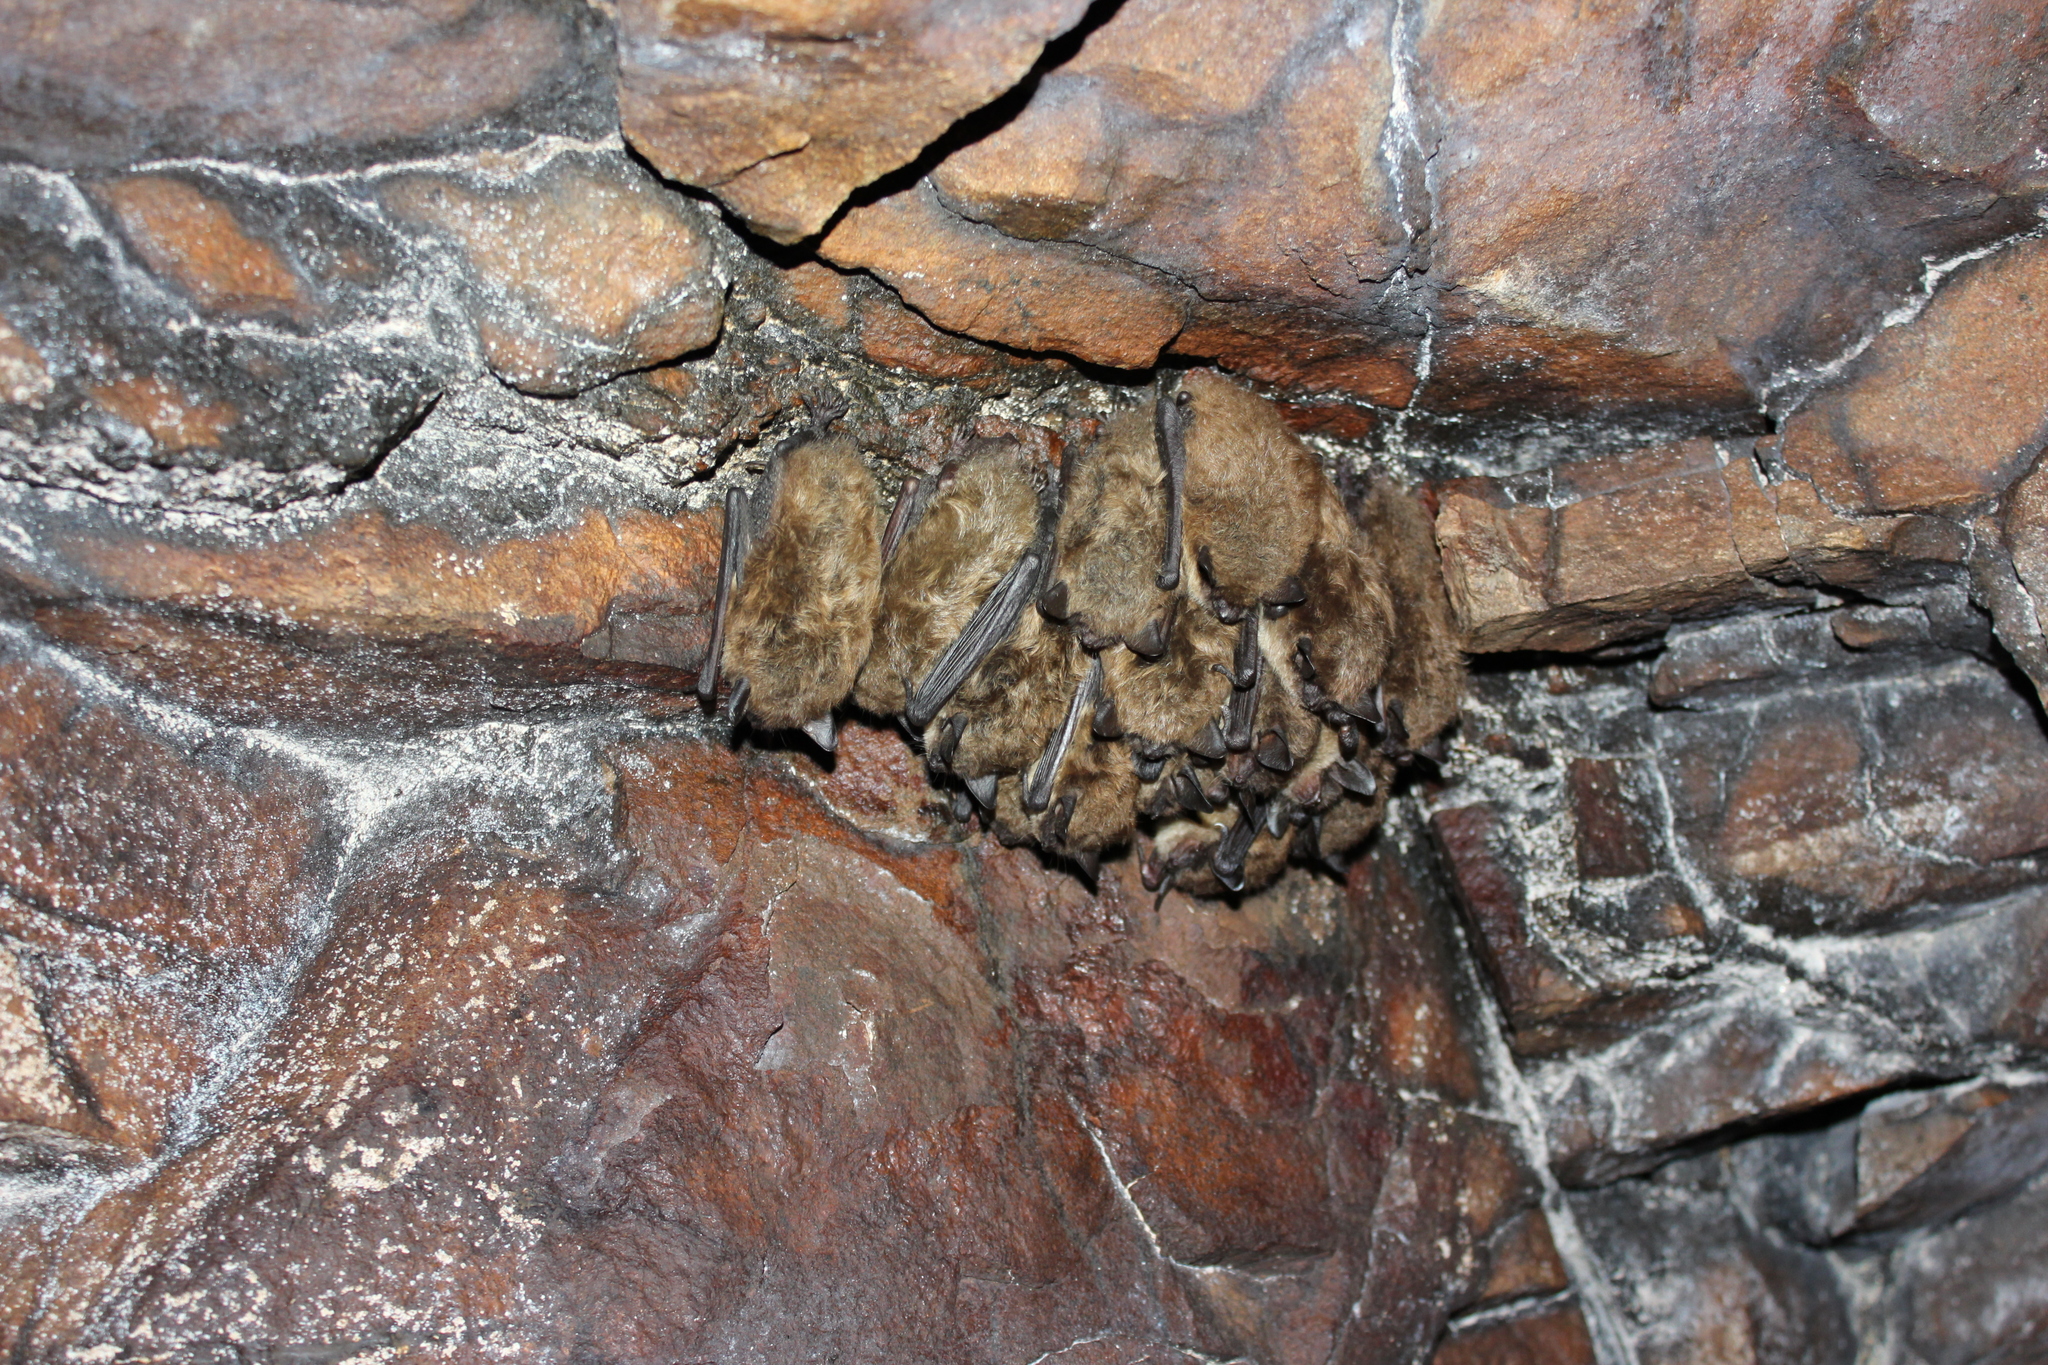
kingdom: Animalia
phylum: Chordata
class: Mammalia
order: Chiroptera
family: Vespertilionidae
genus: Myotis
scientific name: Myotis lucifugus
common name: Little brown bat
